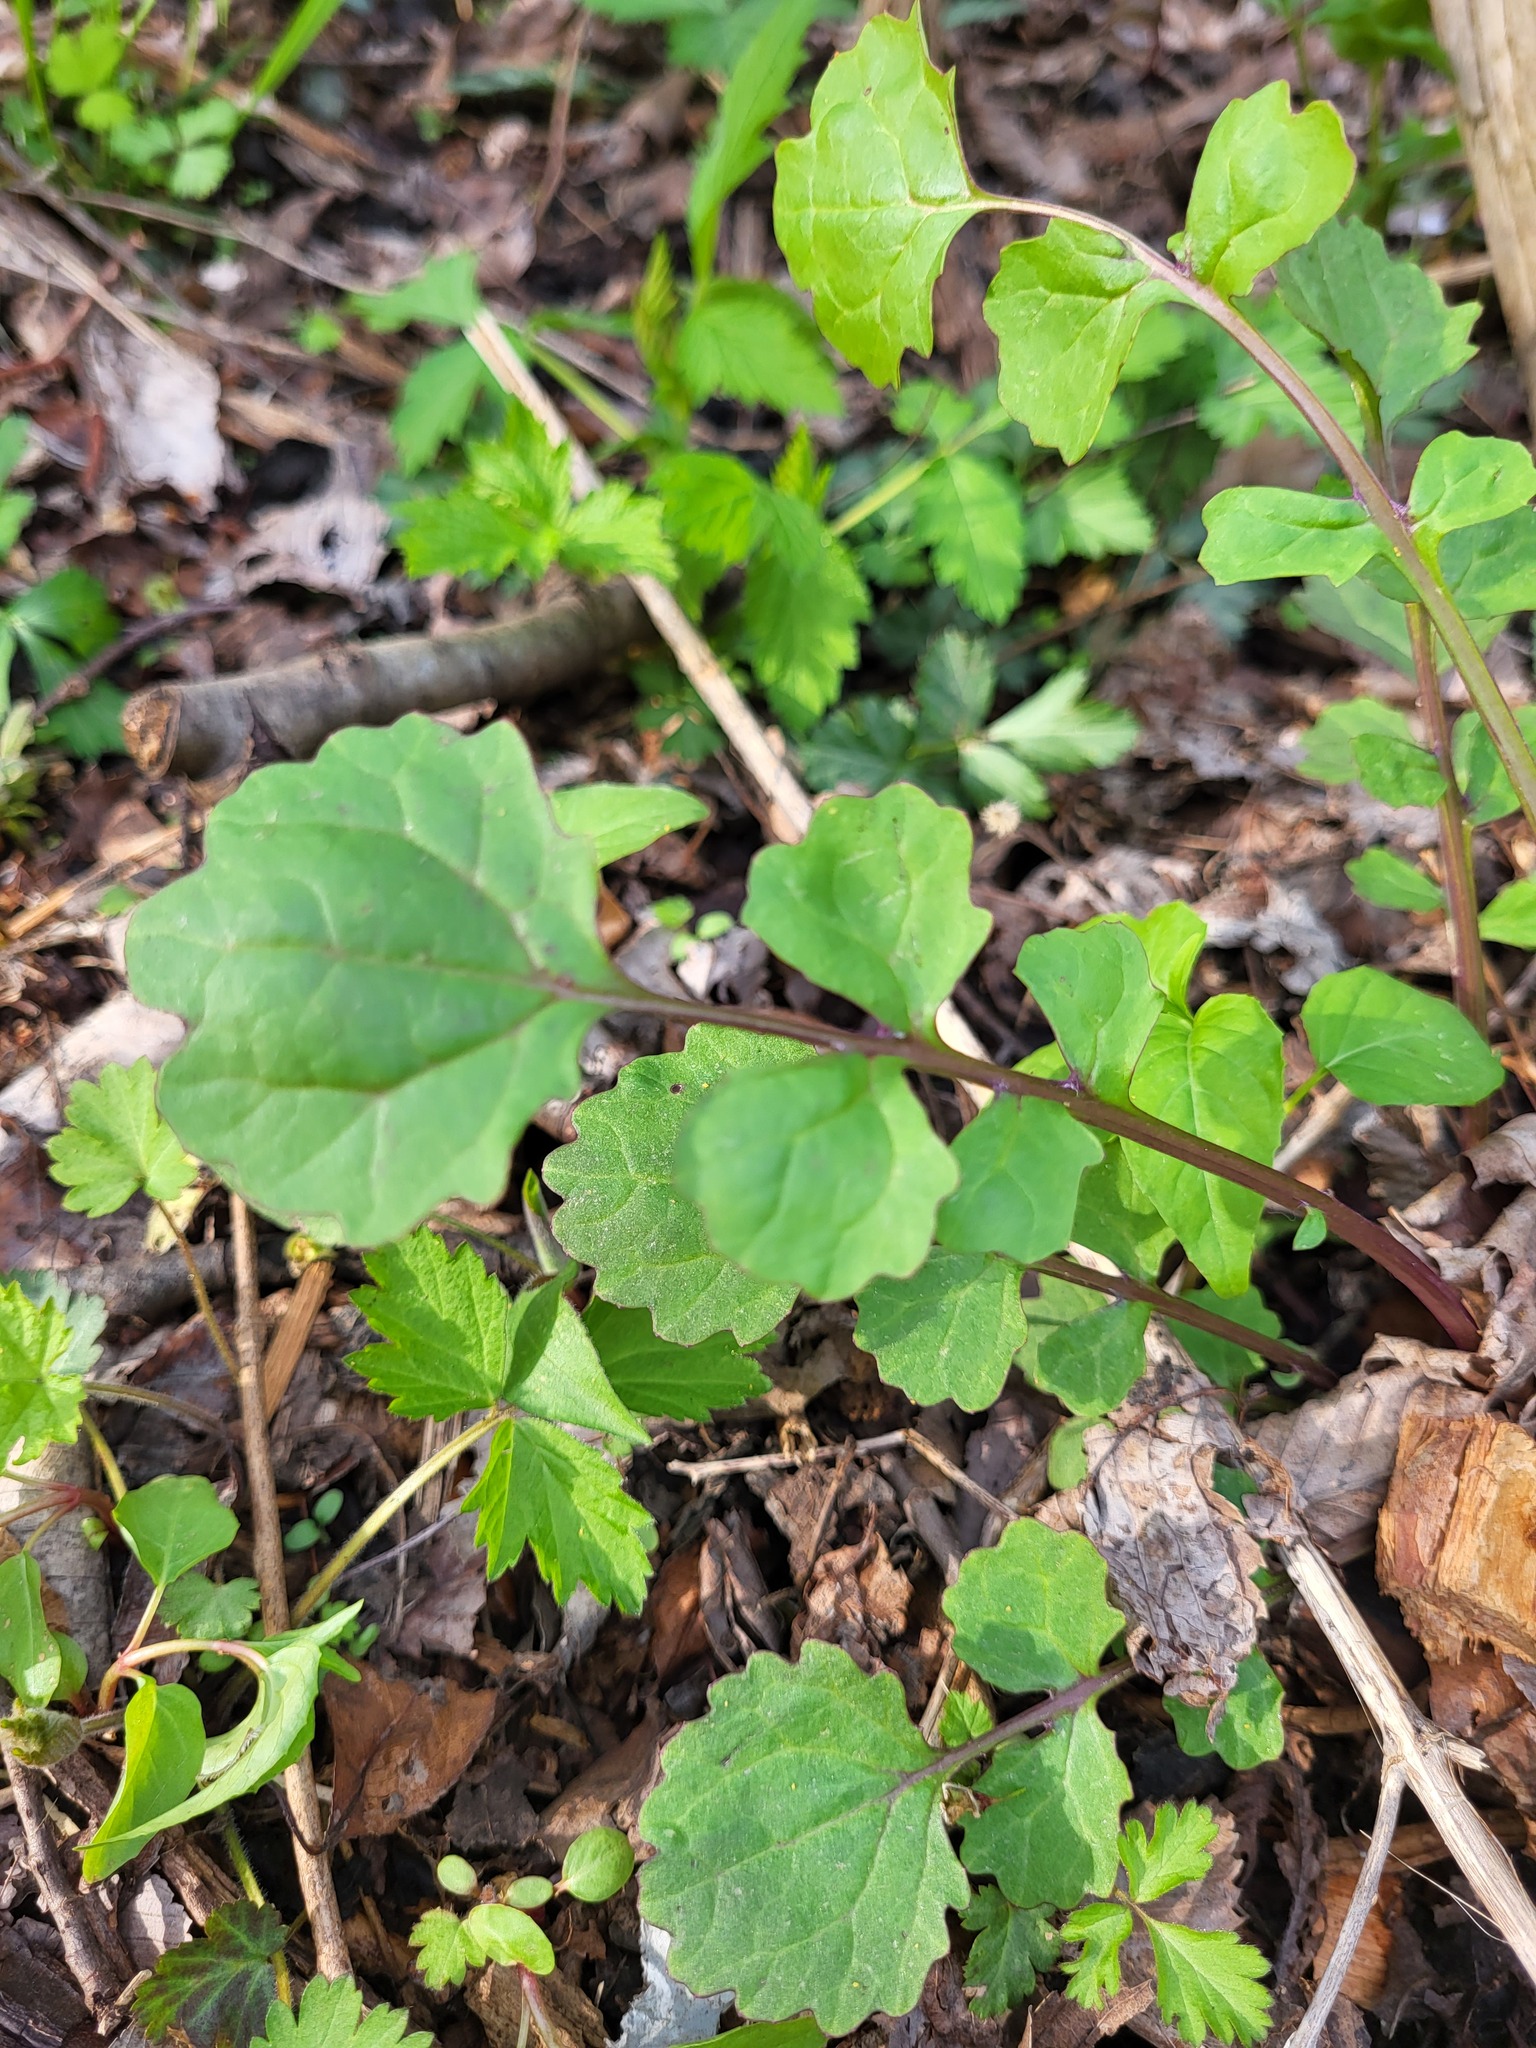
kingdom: Plantae
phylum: Tracheophyta
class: Magnoliopsida
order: Asterales
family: Asteraceae
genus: Packera
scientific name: Packera glabella
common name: Butterweed
